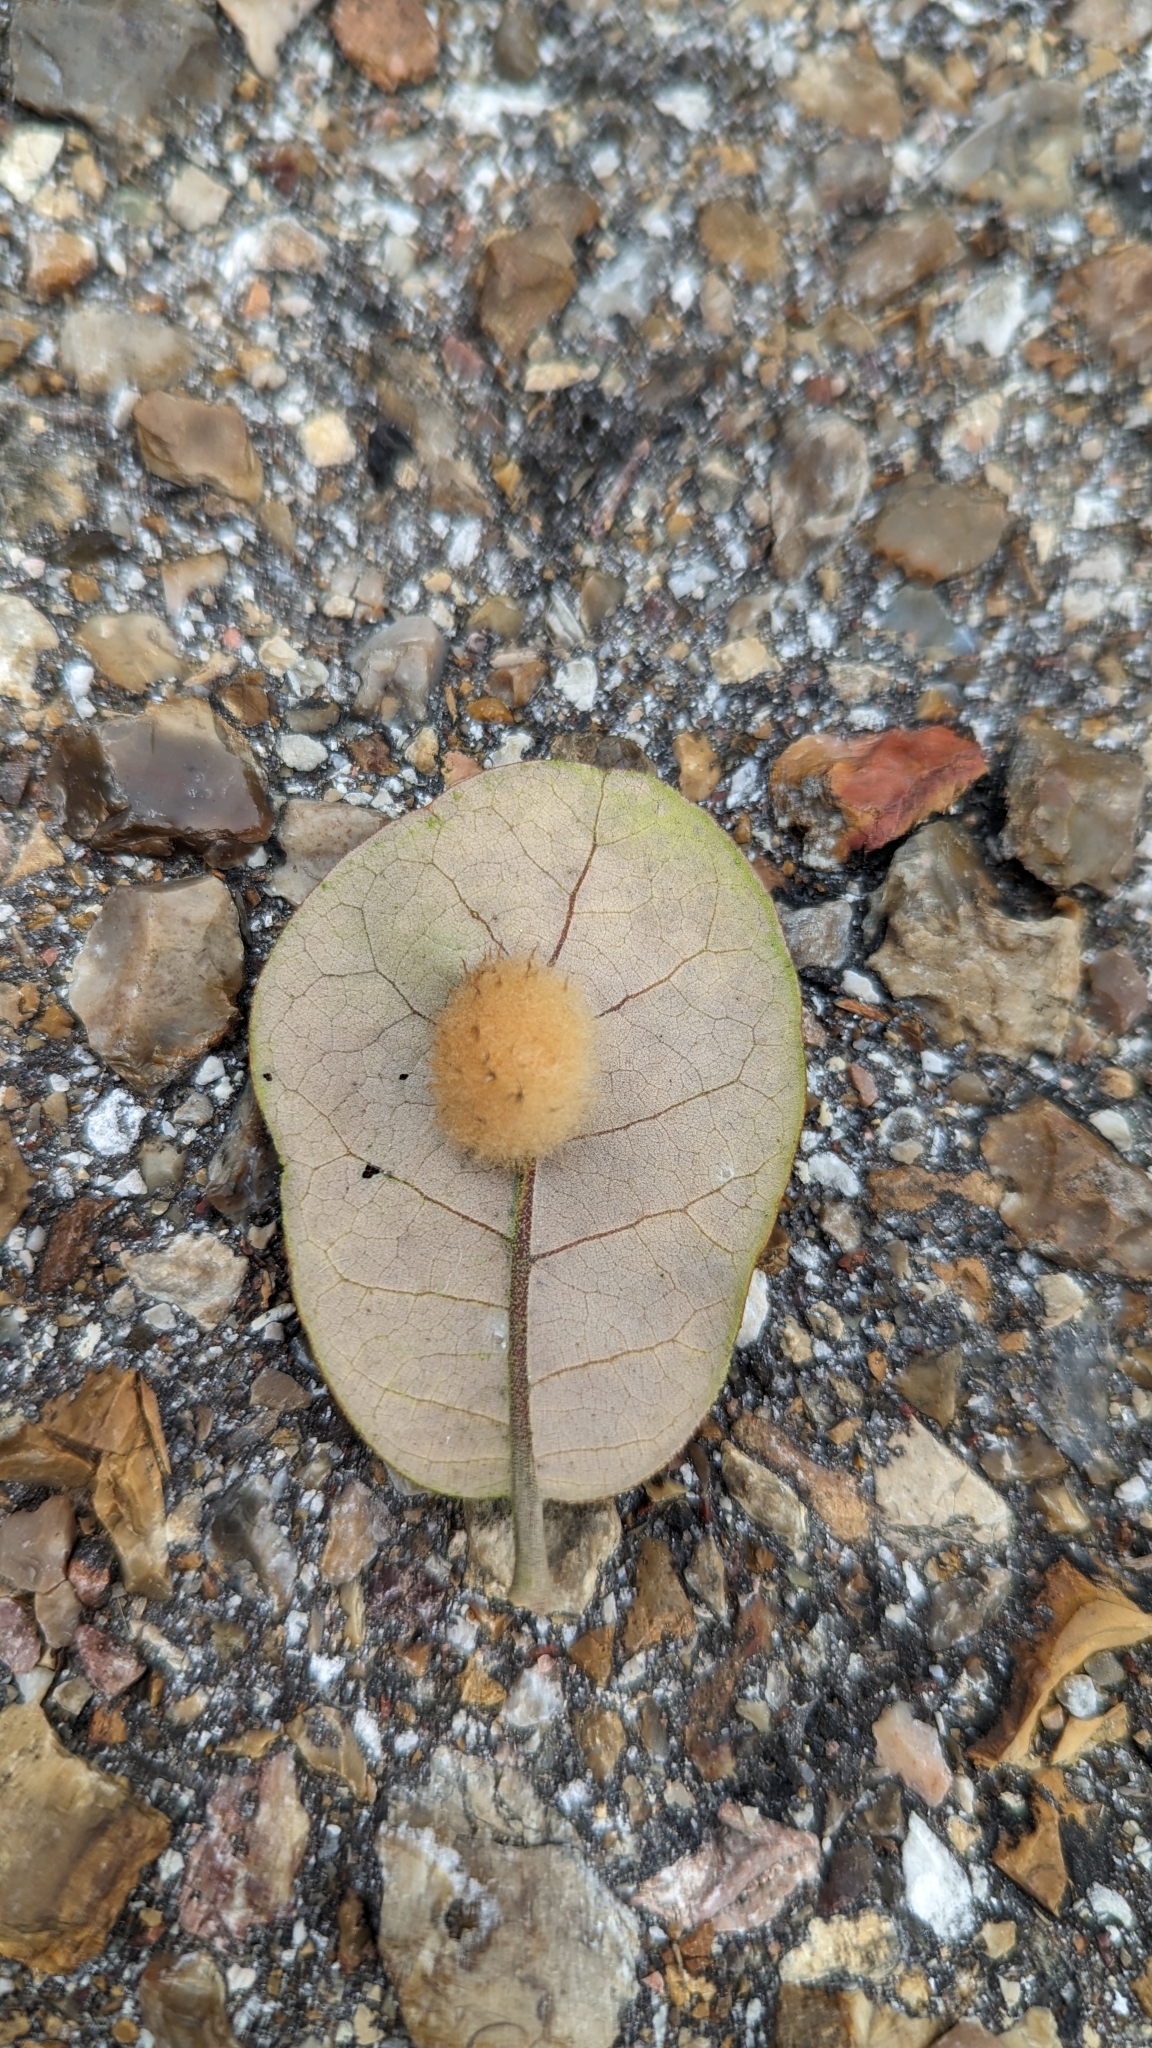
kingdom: Animalia
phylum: Arthropoda
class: Insecta
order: Hymenoptera
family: Cynipidae
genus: Andricus
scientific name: Andricus Druon quercuslanigerum
